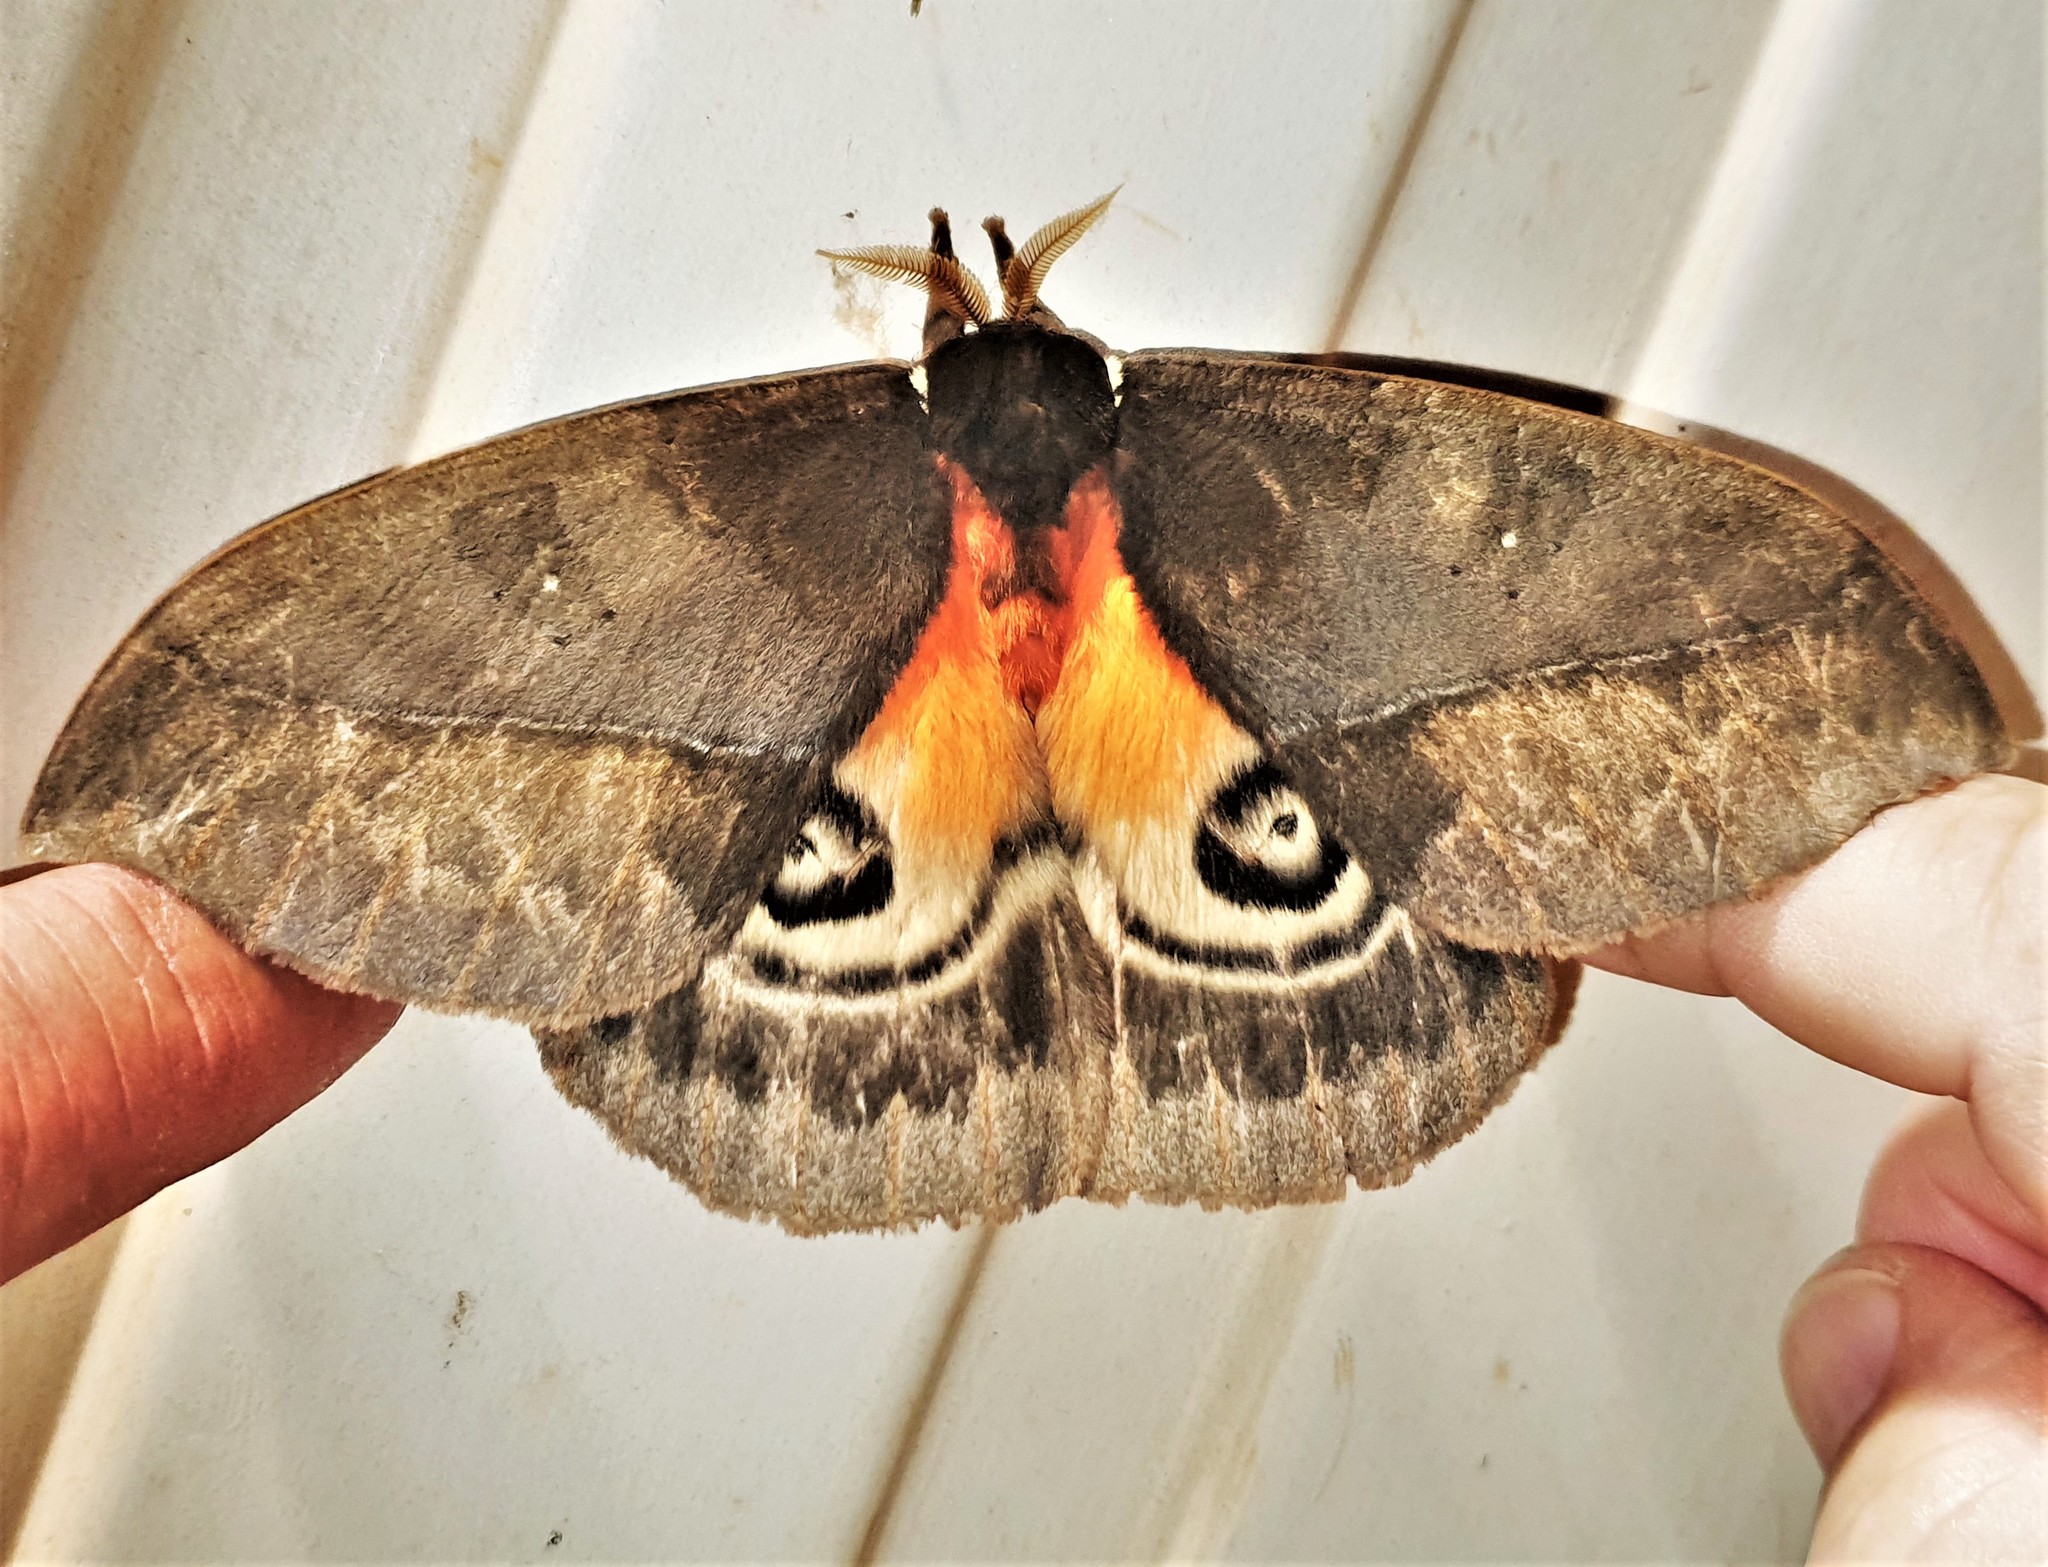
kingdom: Animalia
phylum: Arthropoda
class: Insecta
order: Lepidoptera
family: Saturniidae
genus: Automeris
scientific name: Automeris egeus
